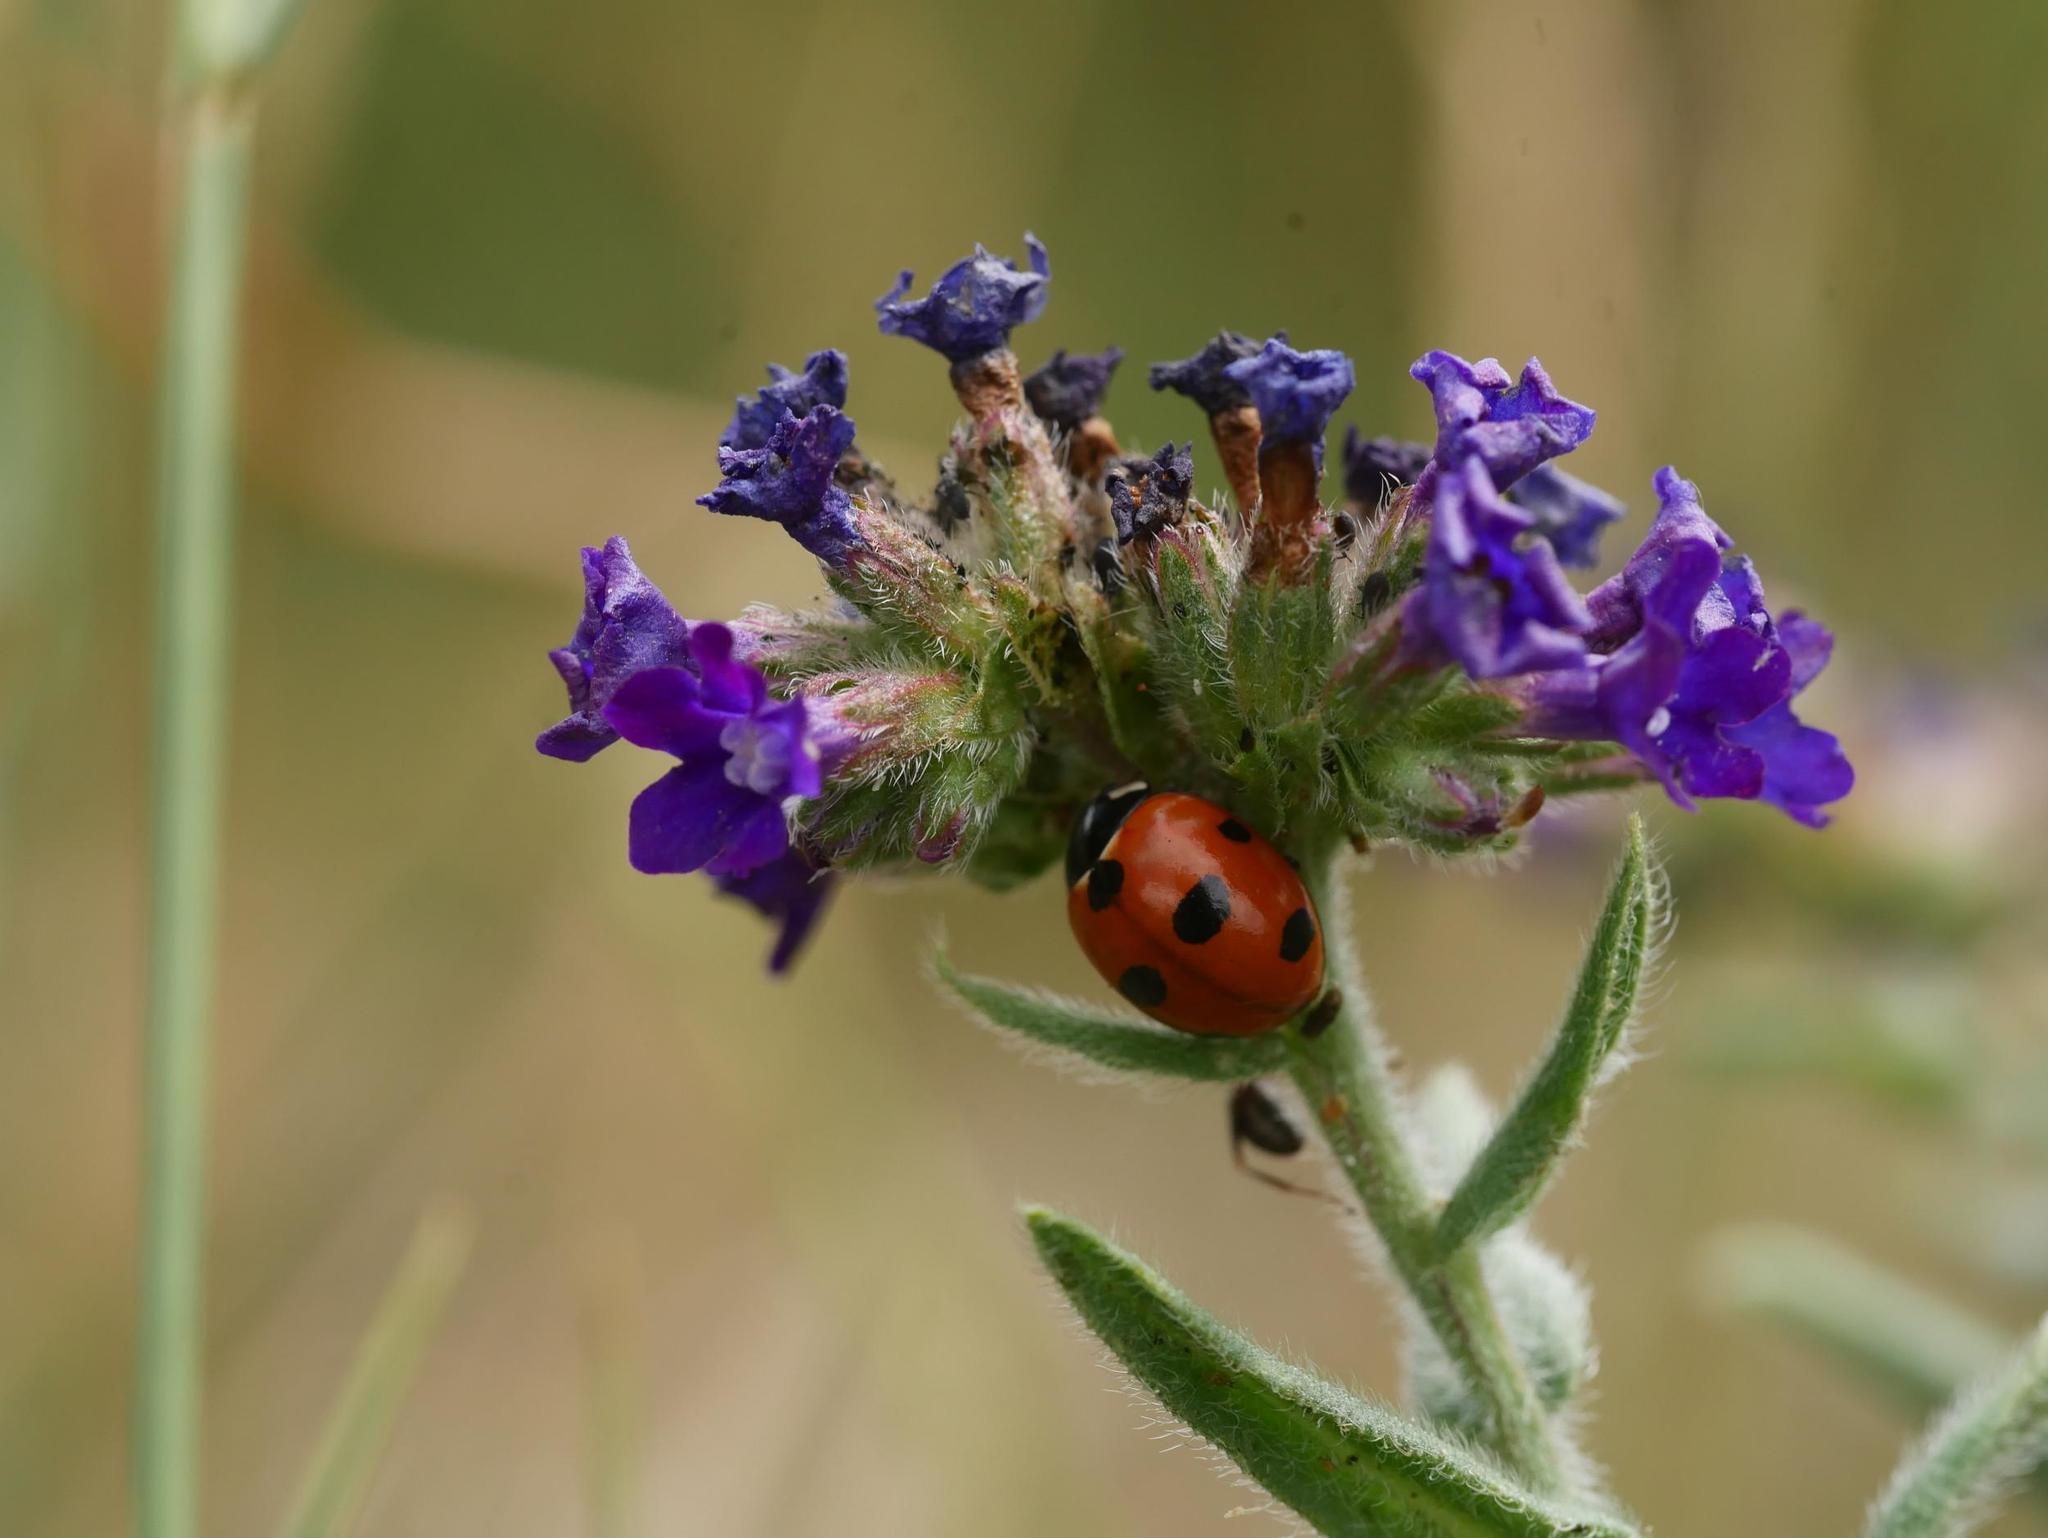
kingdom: Plantae
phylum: Tracheophyta
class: Magnoliopsida
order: Boraginales
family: Boraginaceae
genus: Anchusa
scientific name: Anchusa officinalis
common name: Alkanet
